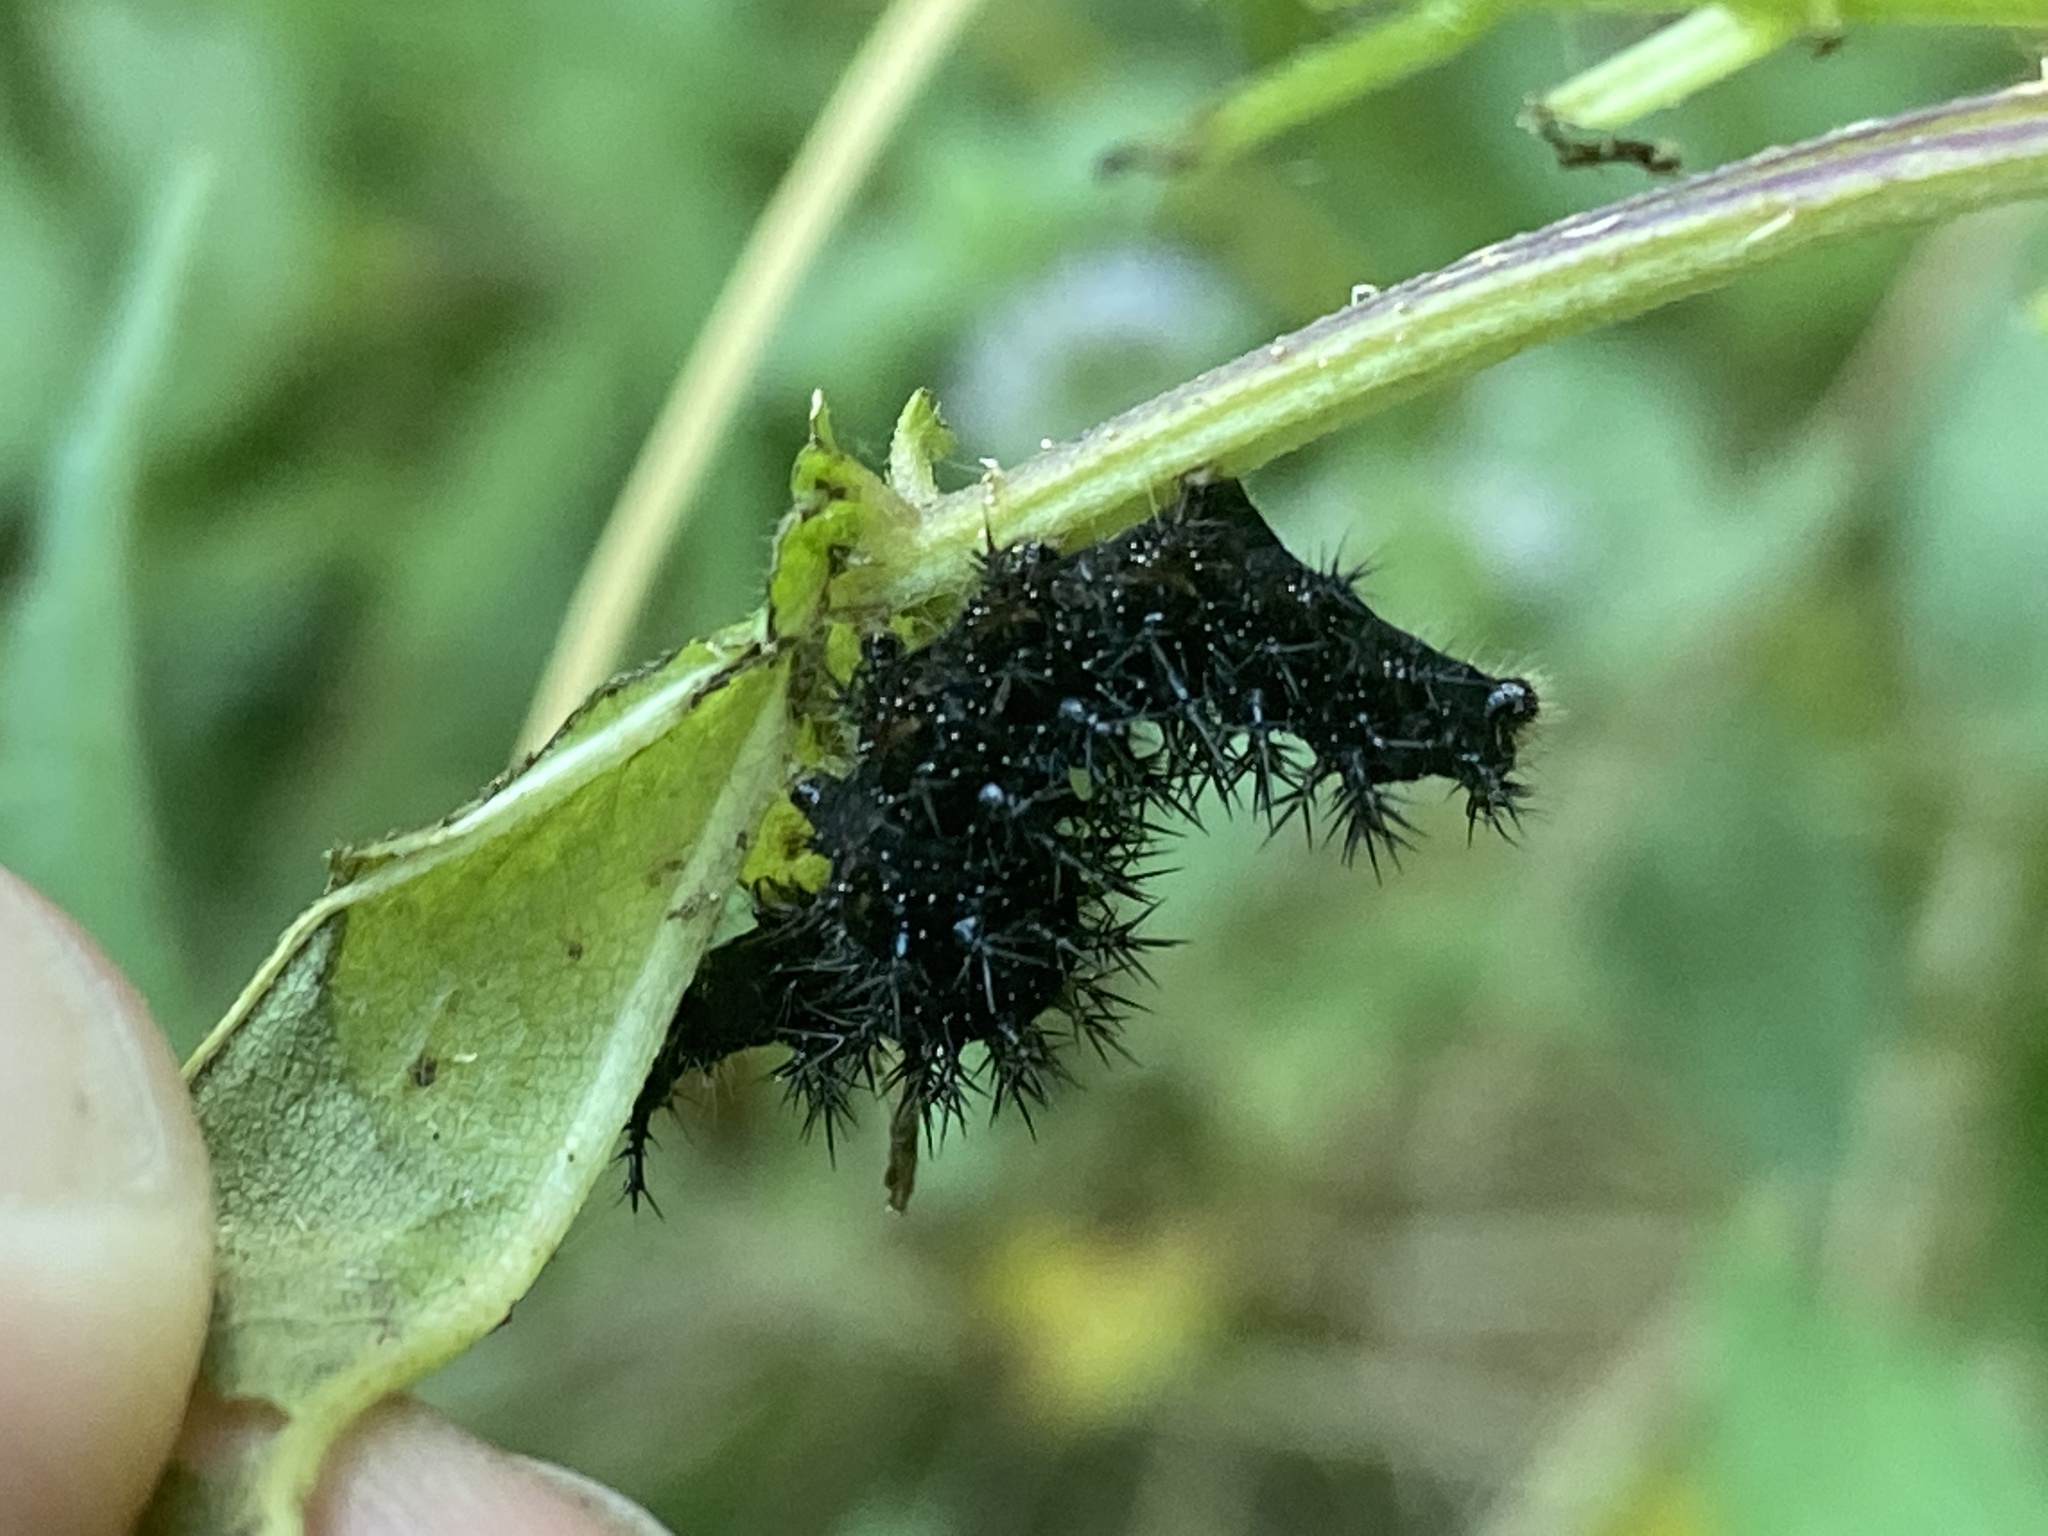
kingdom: Animalia
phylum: Arthropoda
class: Insecta
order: Lepidoptera
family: Nymphalidae
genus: Araschnia
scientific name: Araschnia levana
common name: Map butterfly
